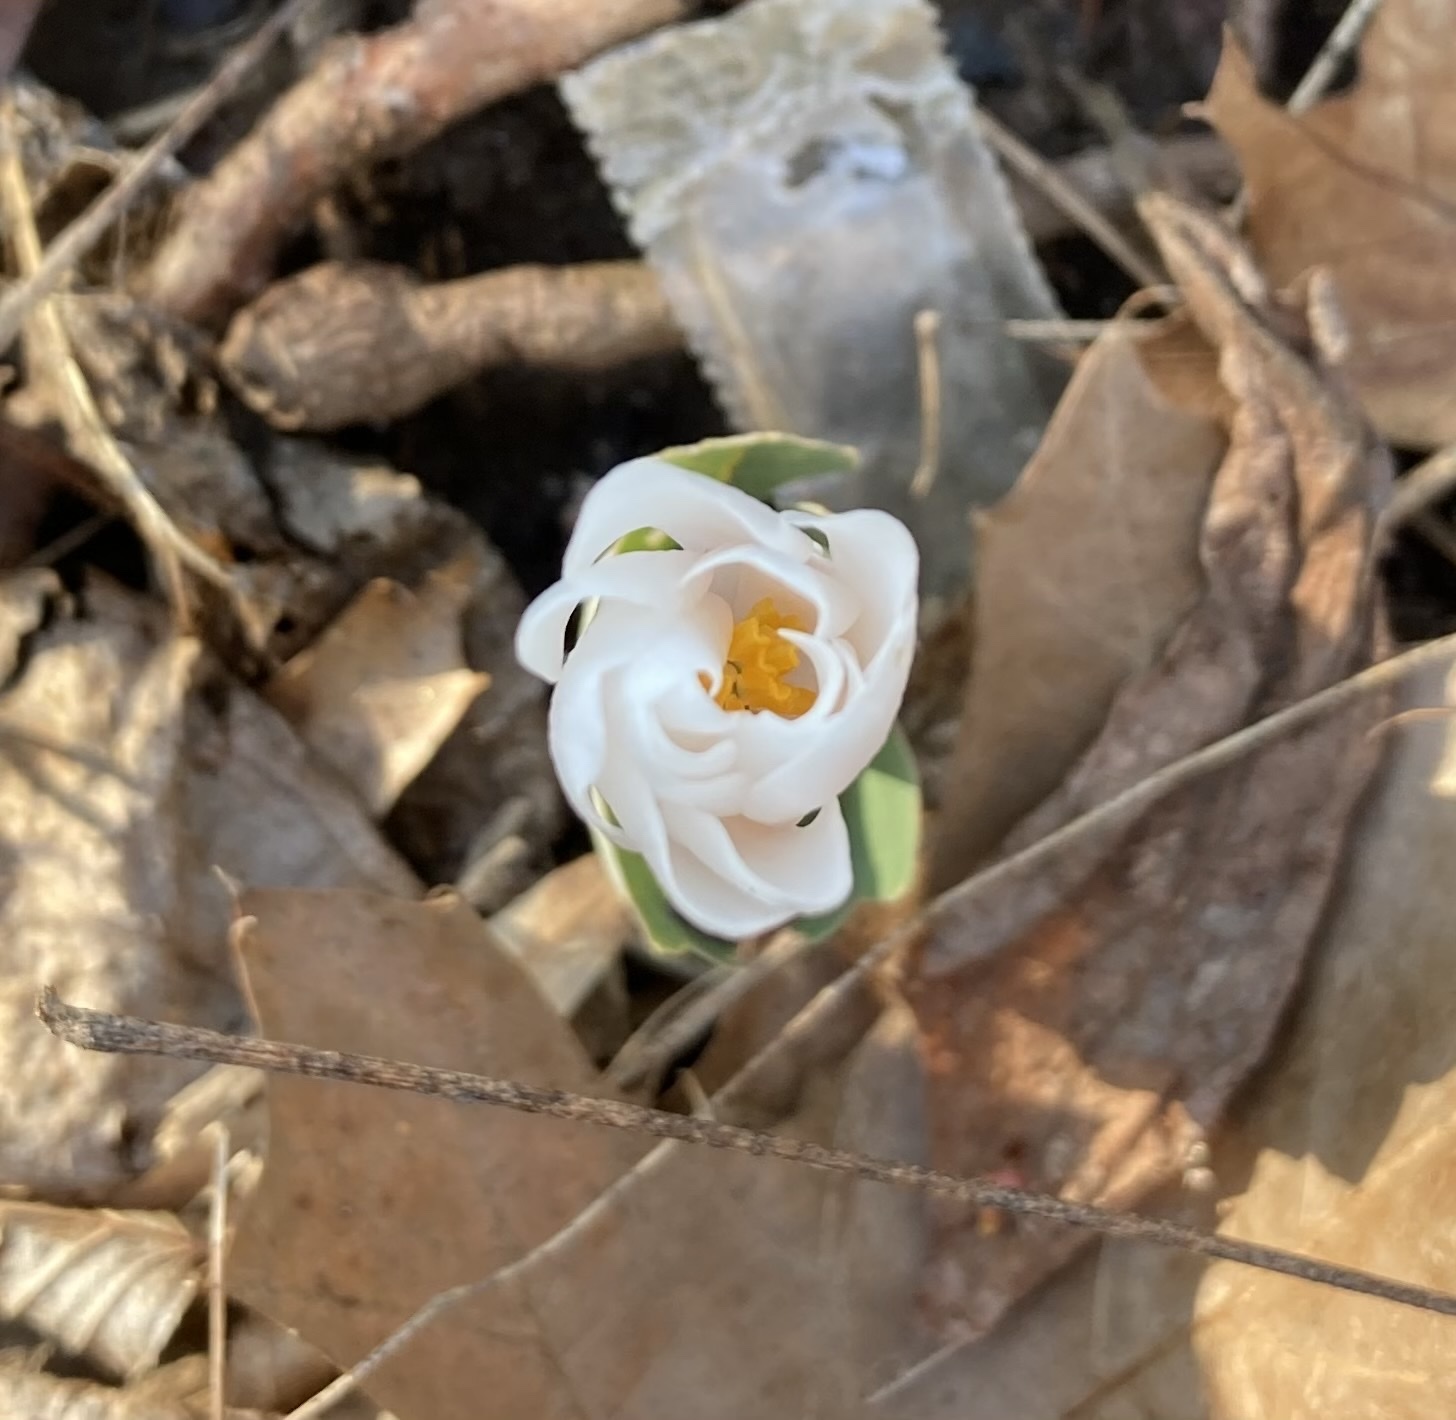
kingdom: Plantae
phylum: Tracheophyta
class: Magnoliopsida
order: Ranunculales
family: Papaveraceae
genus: Sanguinaria
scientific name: Sanguinaria canadensis
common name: Bloodroot
